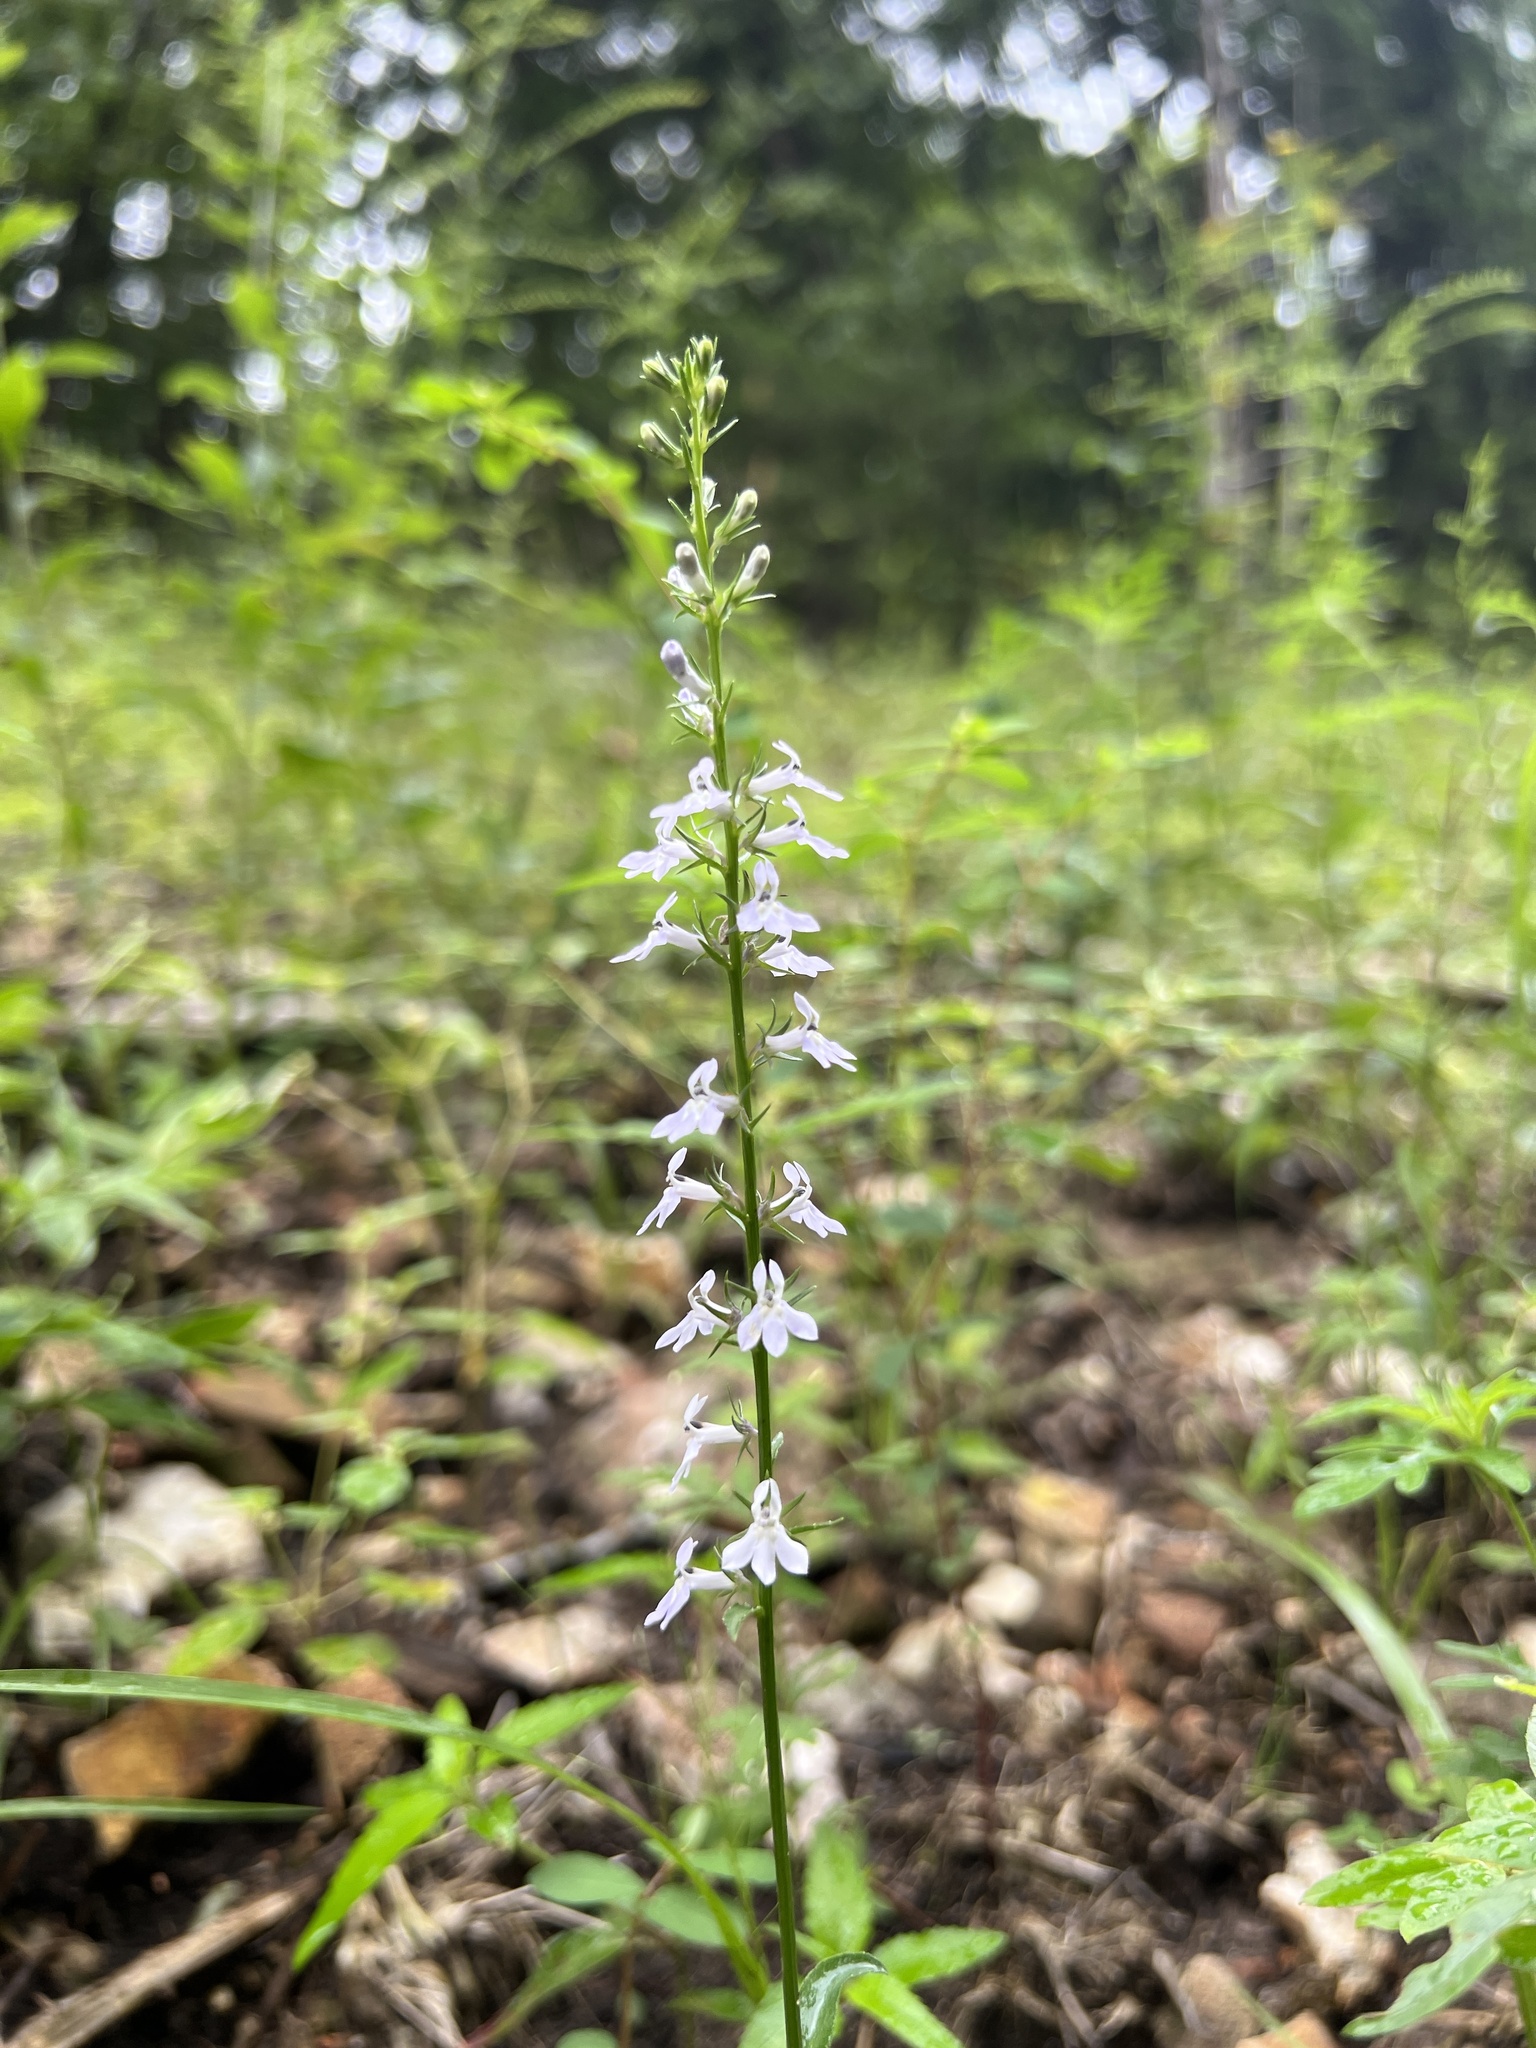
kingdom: Plantae
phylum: Tracheophyta
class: Magnoliopsida
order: Asterales
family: Campanulaceae
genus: Lobelia
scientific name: Lobelia spicata
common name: Pale-spike lobelia
